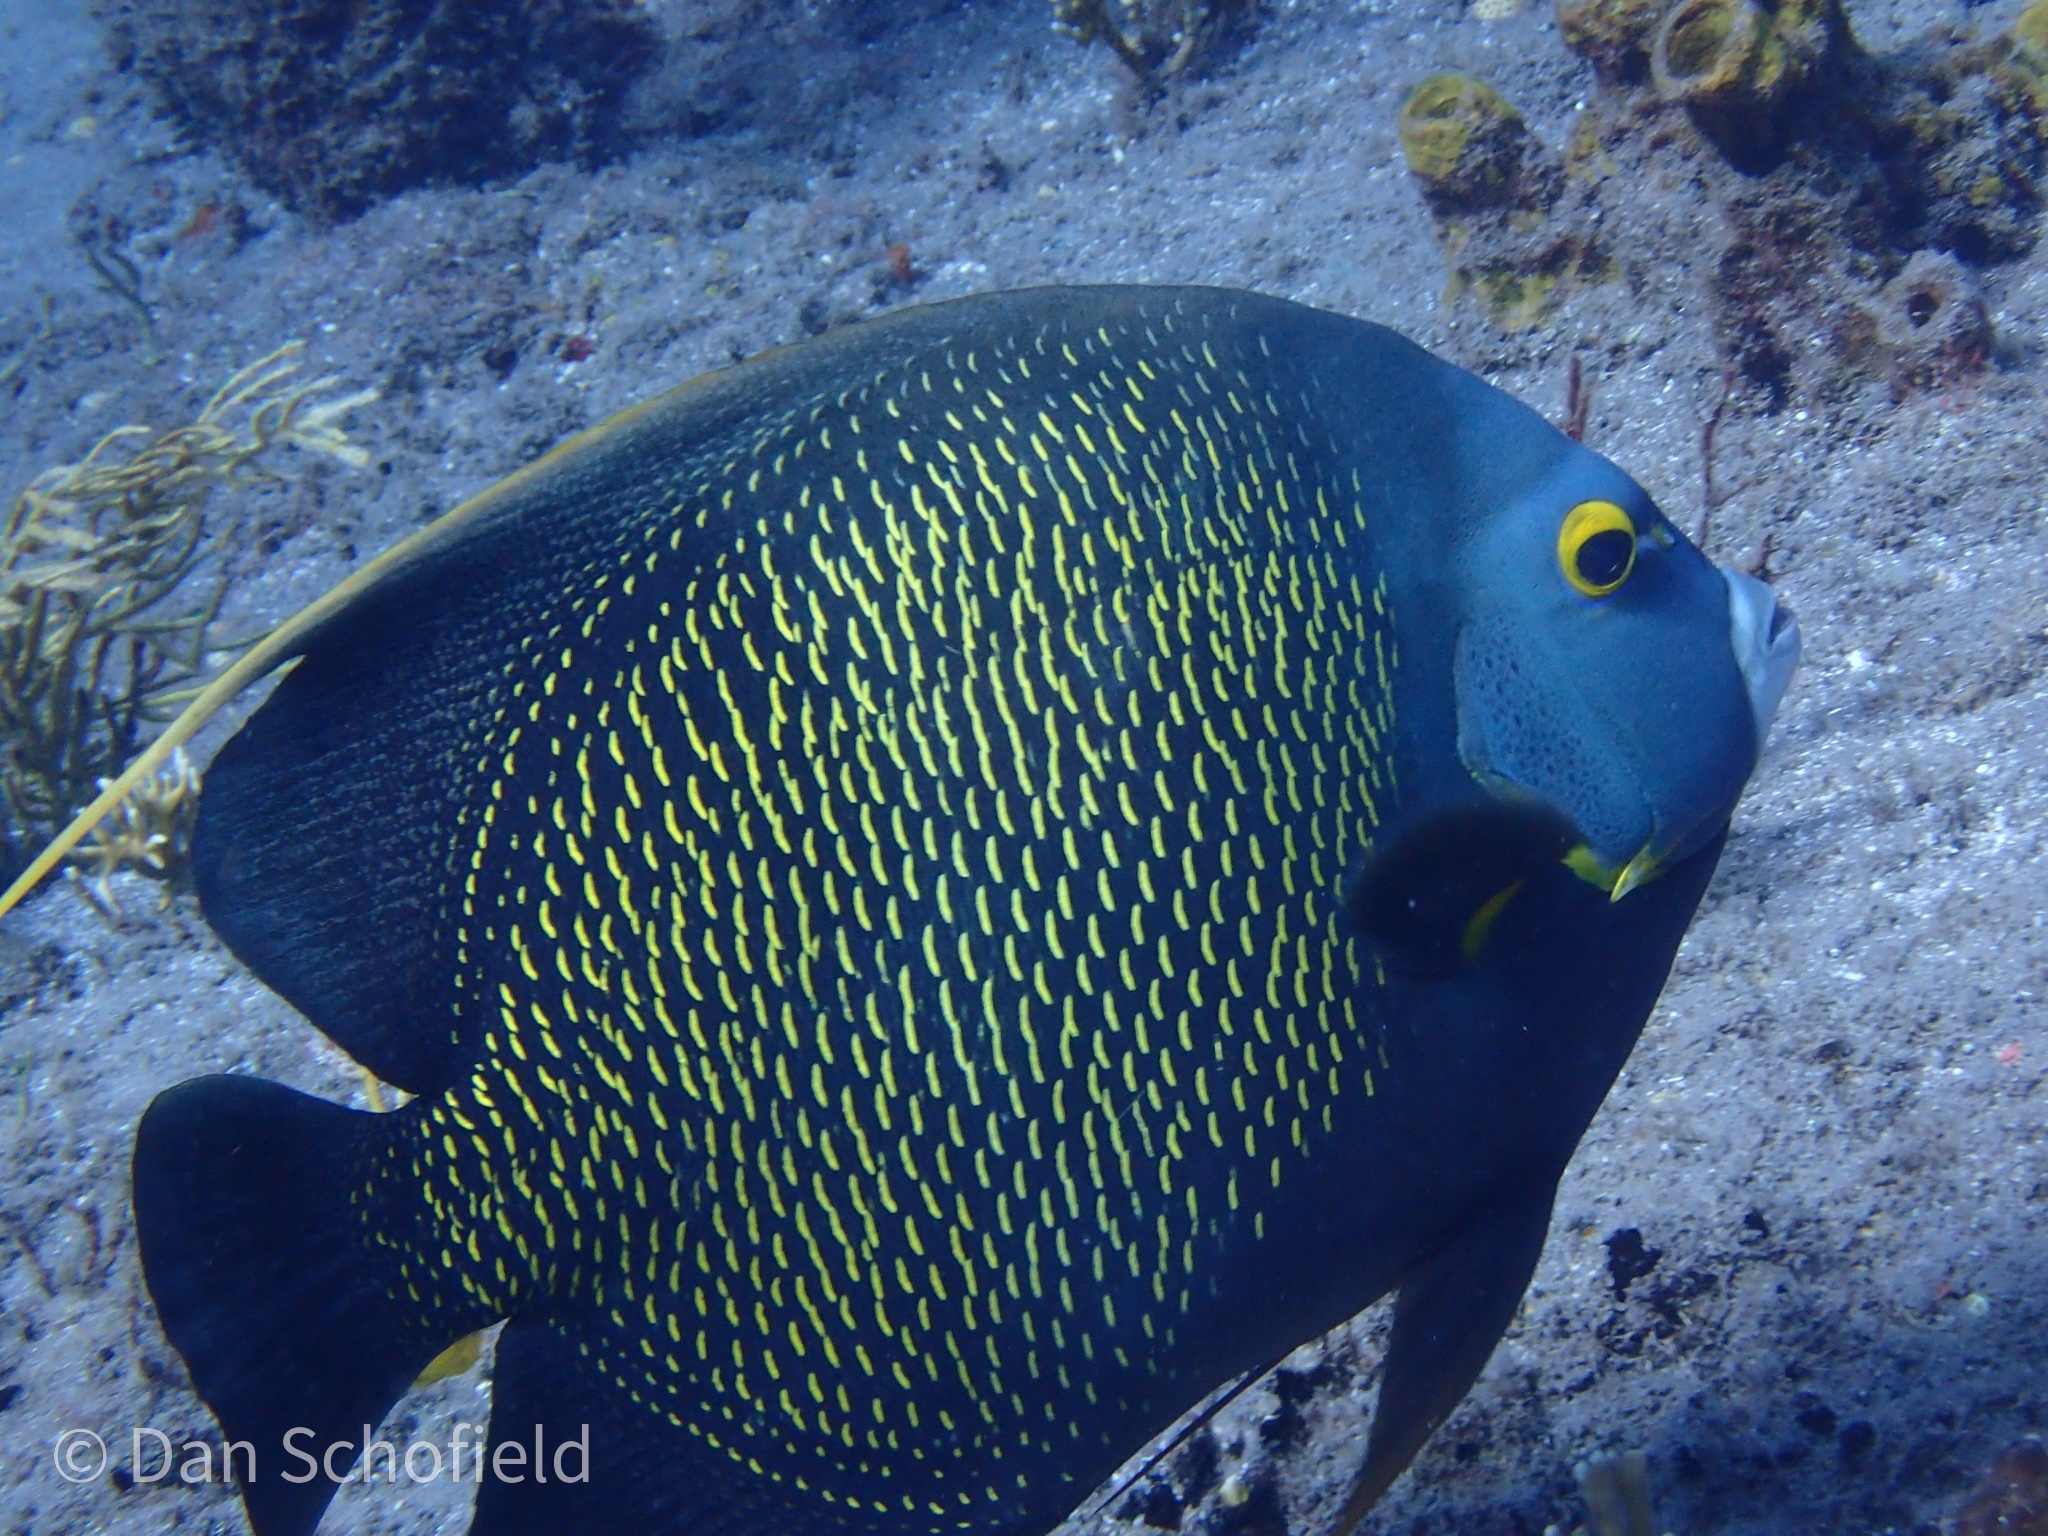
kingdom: Animalia
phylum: Chordata
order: Perciformes
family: Pomacanthidae
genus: Pomacanthus
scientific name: Pomacanthus paru
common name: French angelfish
